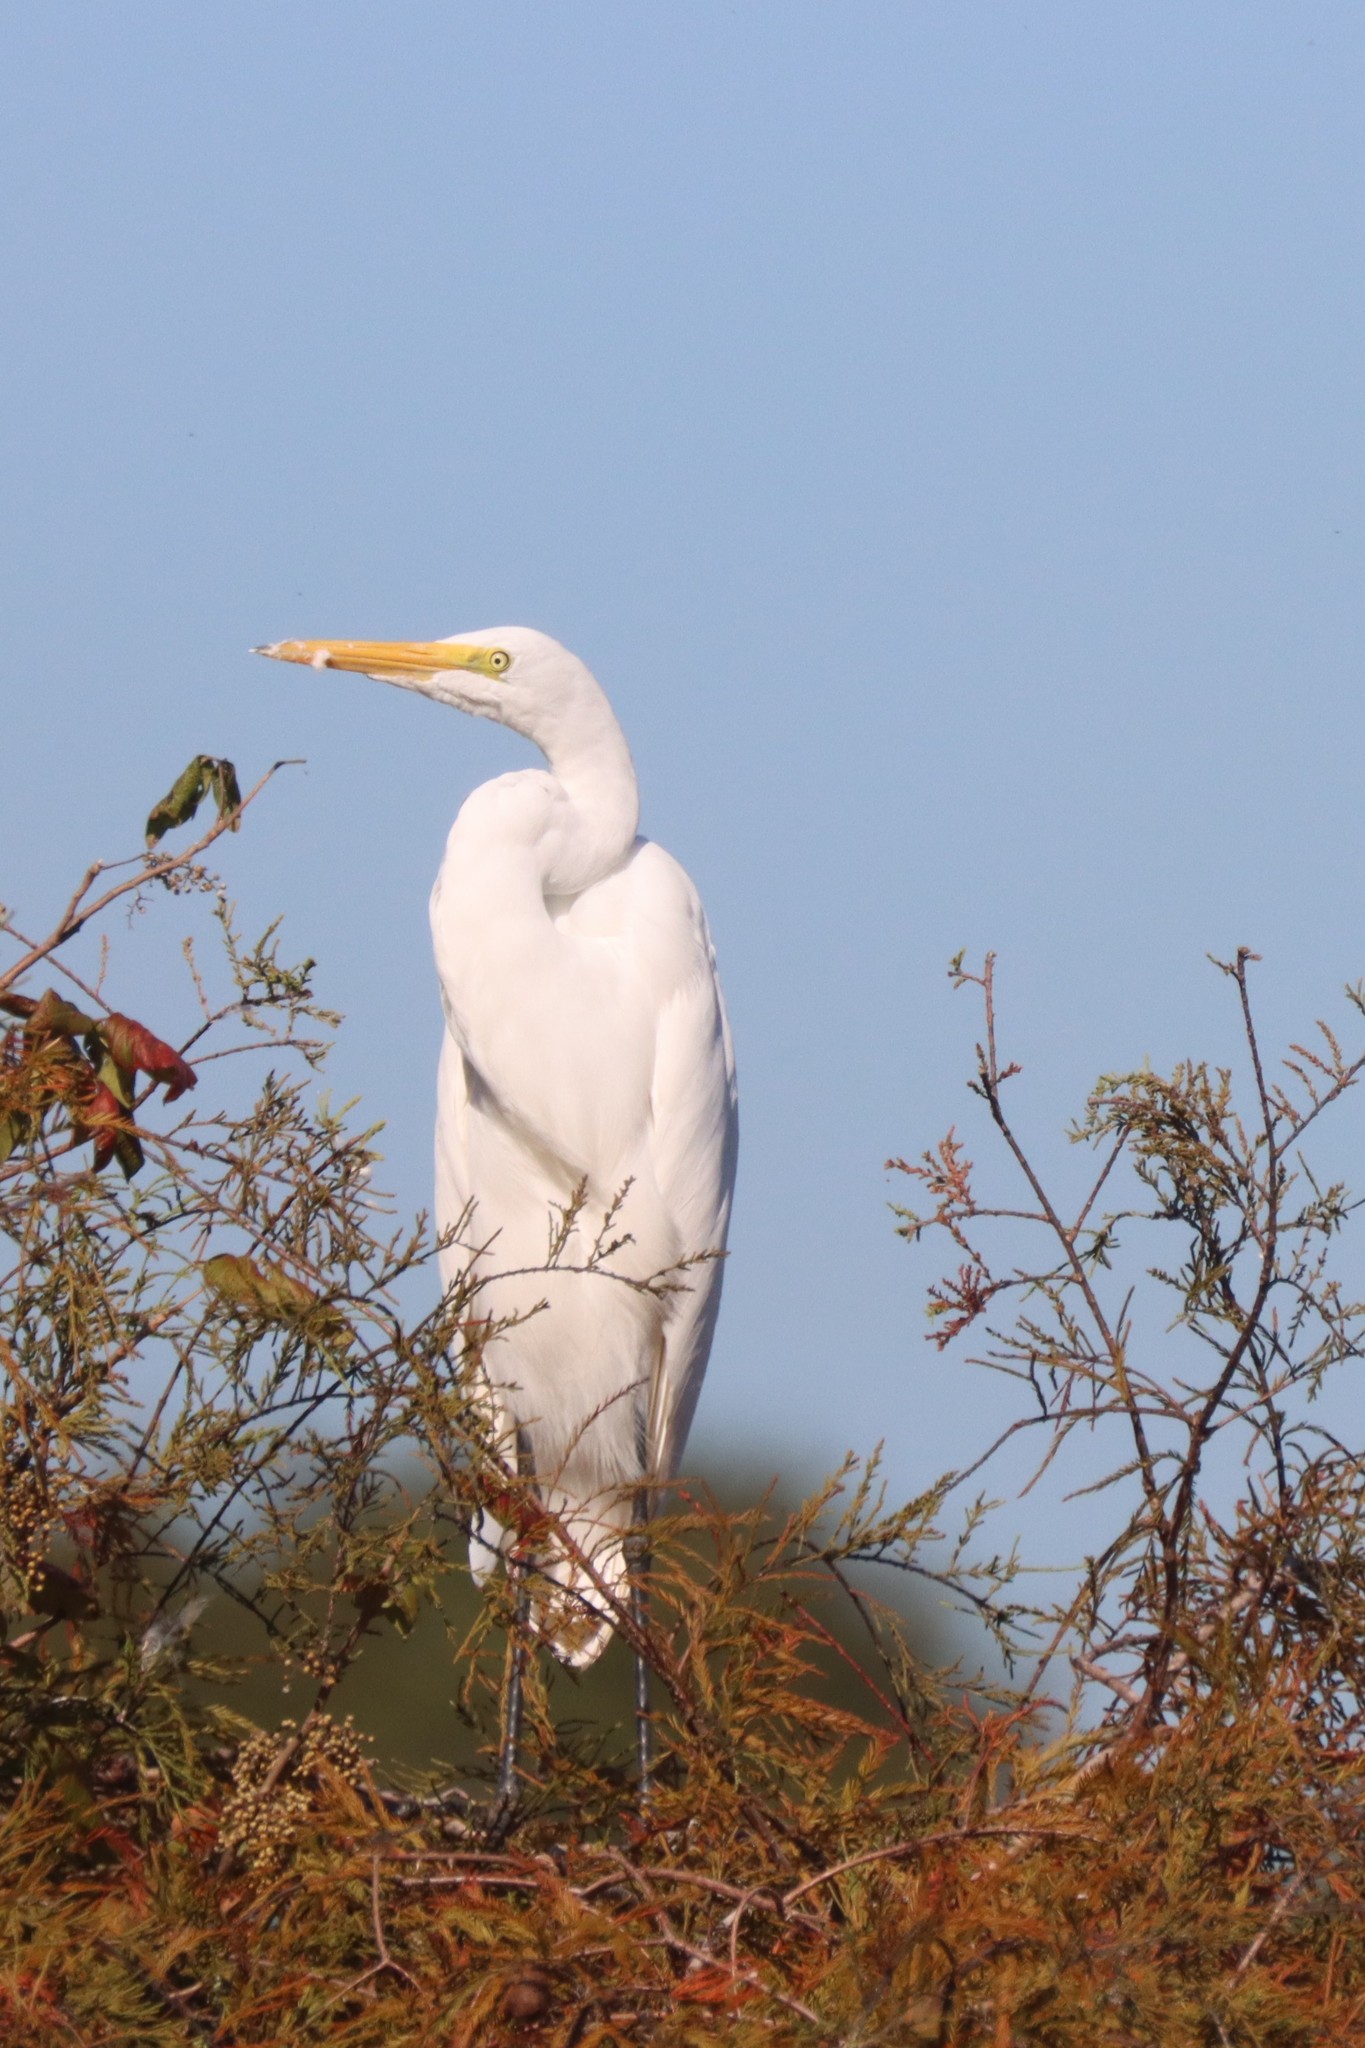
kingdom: Animalia
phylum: Chordata
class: Aves
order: Pelecaniformes
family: Ardeidae
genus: Ardea
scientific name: Ardea alba
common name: Great egret
